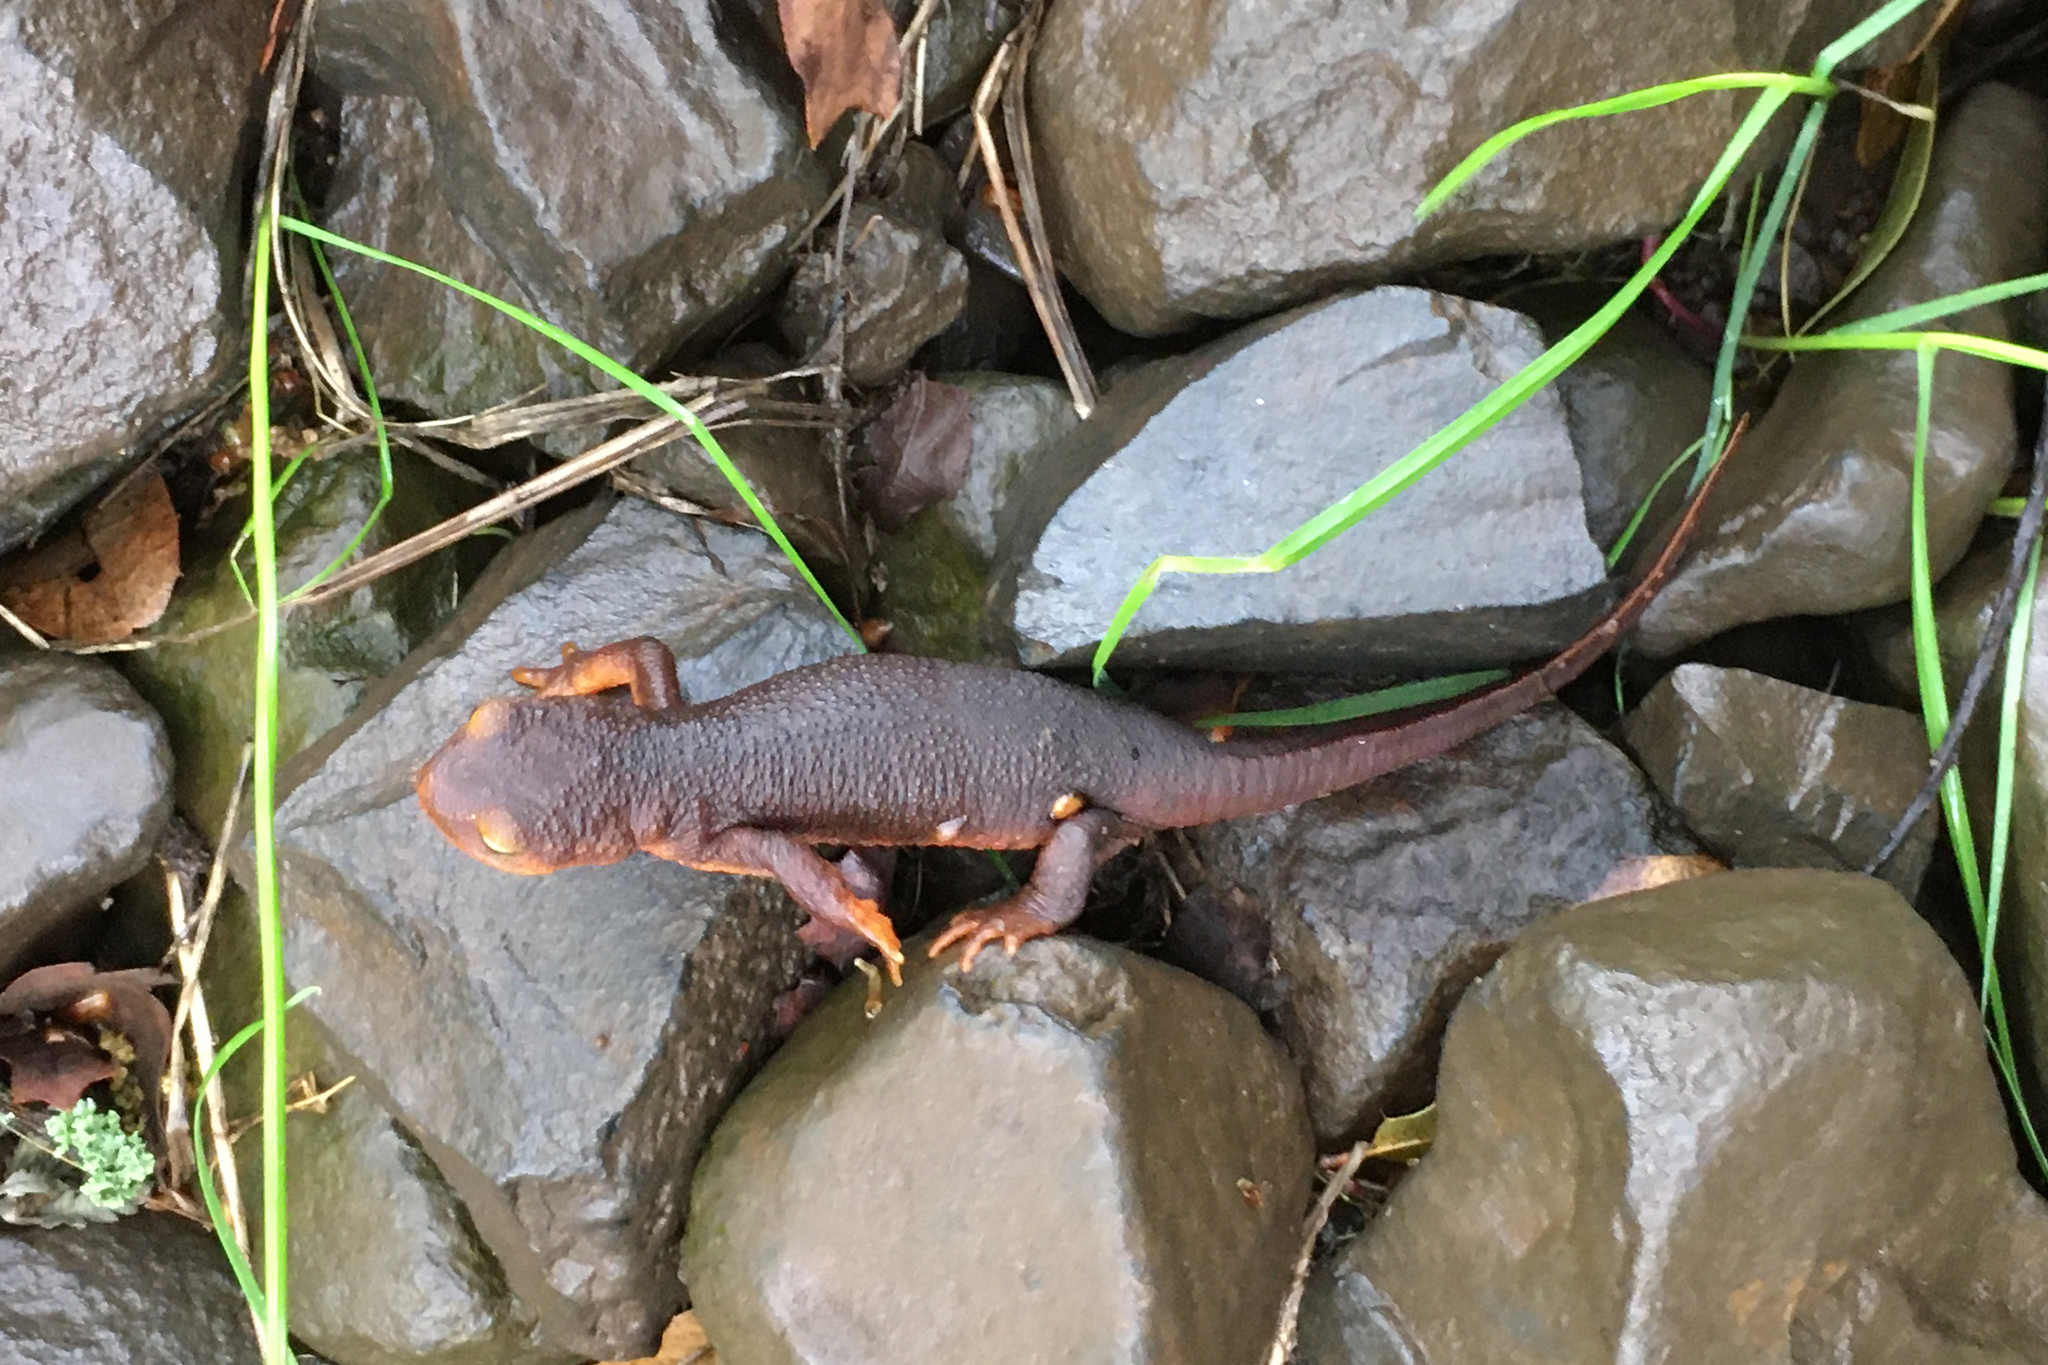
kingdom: Animalia
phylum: Chordata
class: Amphibia
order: Caudata
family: Salamandridae
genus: Taricha
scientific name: Taricha sierrae
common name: Sierra newt
